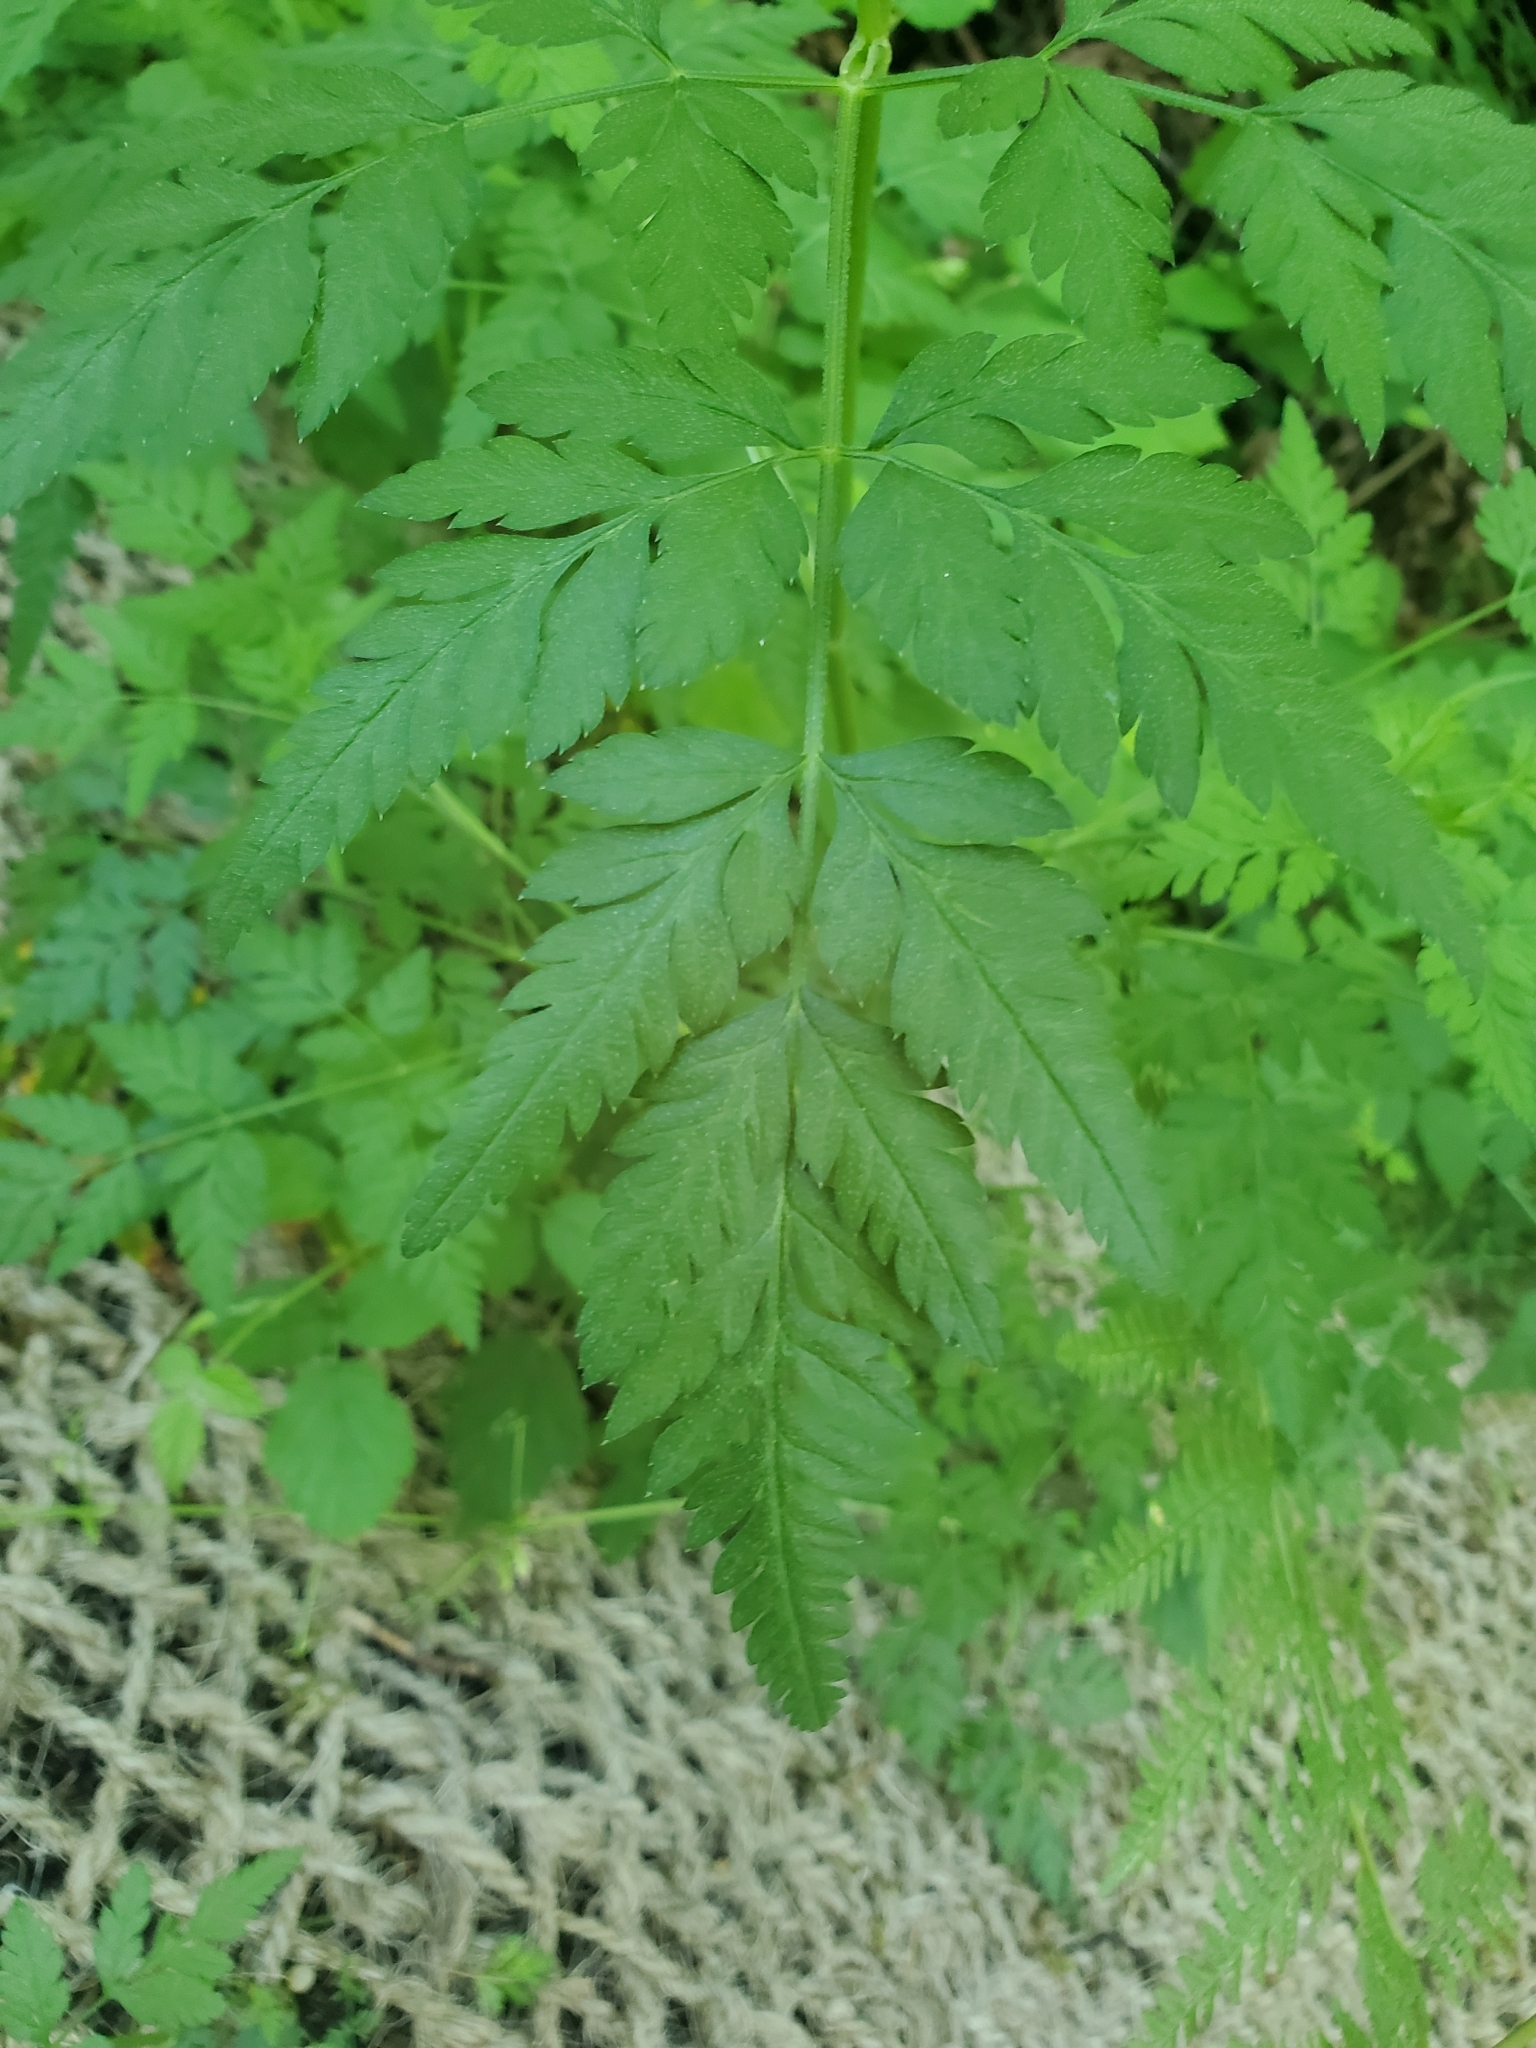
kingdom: Plantae
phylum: Tracheophyta
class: Magnoliopsida
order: Apiales
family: Apiaceae
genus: Torilis
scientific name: Torilis japonica
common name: Upright hedge-parsley
